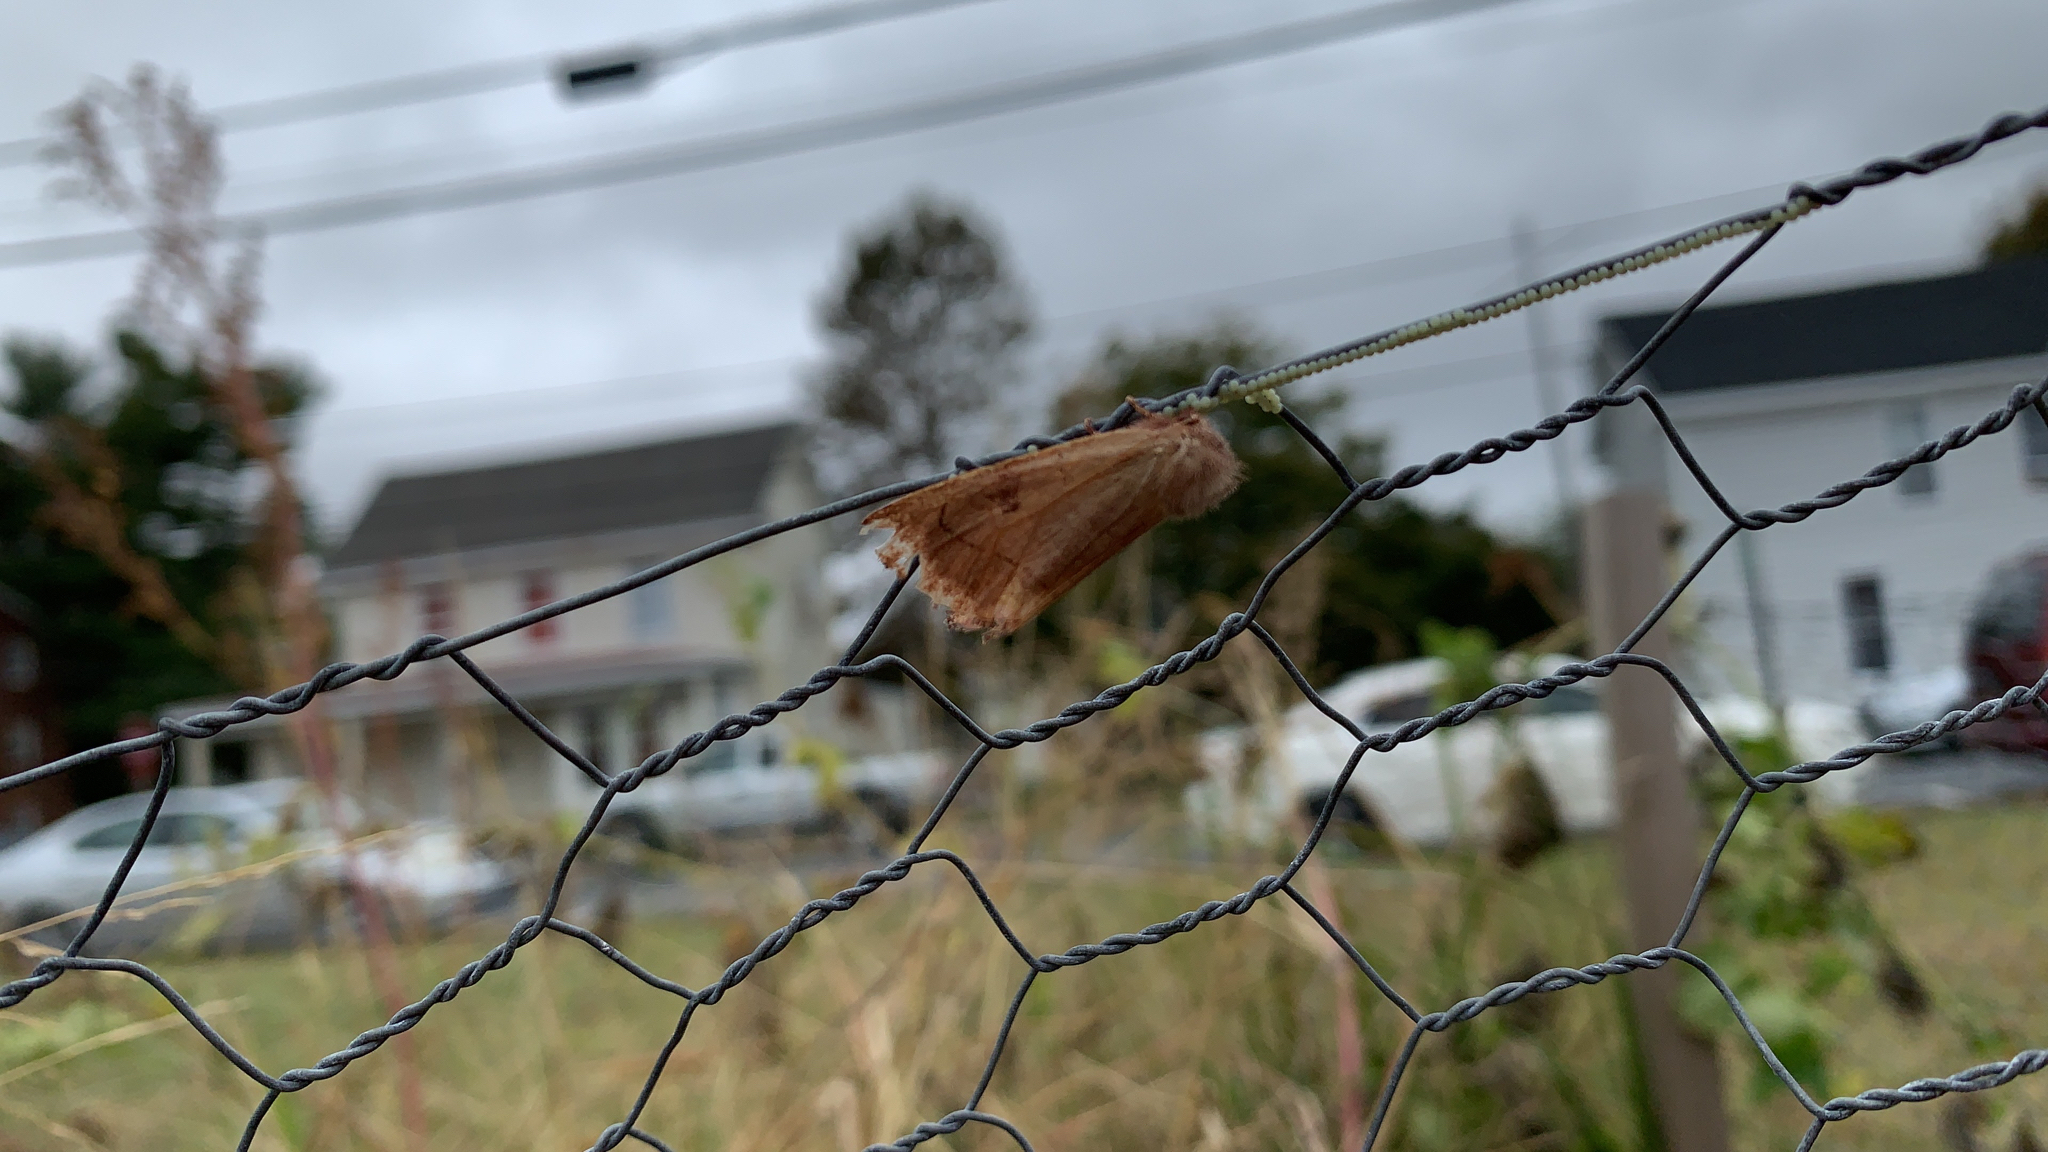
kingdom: Animalia
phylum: Arthropoda
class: Insecta
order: Lepidoptera
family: Noctuidae
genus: Choephora
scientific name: Choephora fungorum
